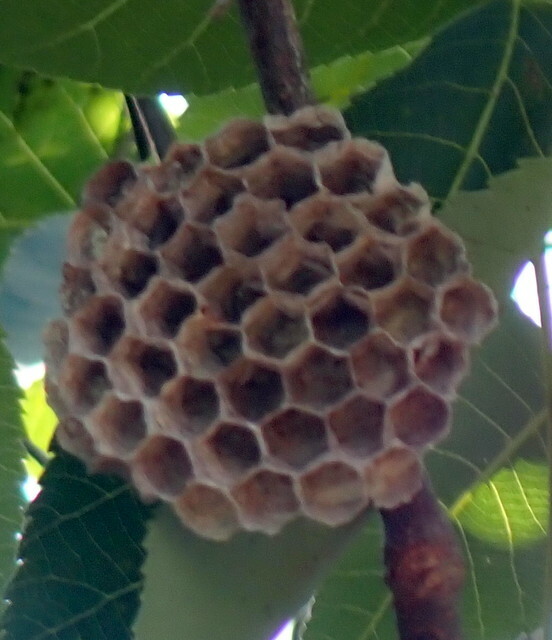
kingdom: Animalia
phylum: Arthropoda
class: Insecta
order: Hymenoptera
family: Vespidae
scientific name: Vespidae
